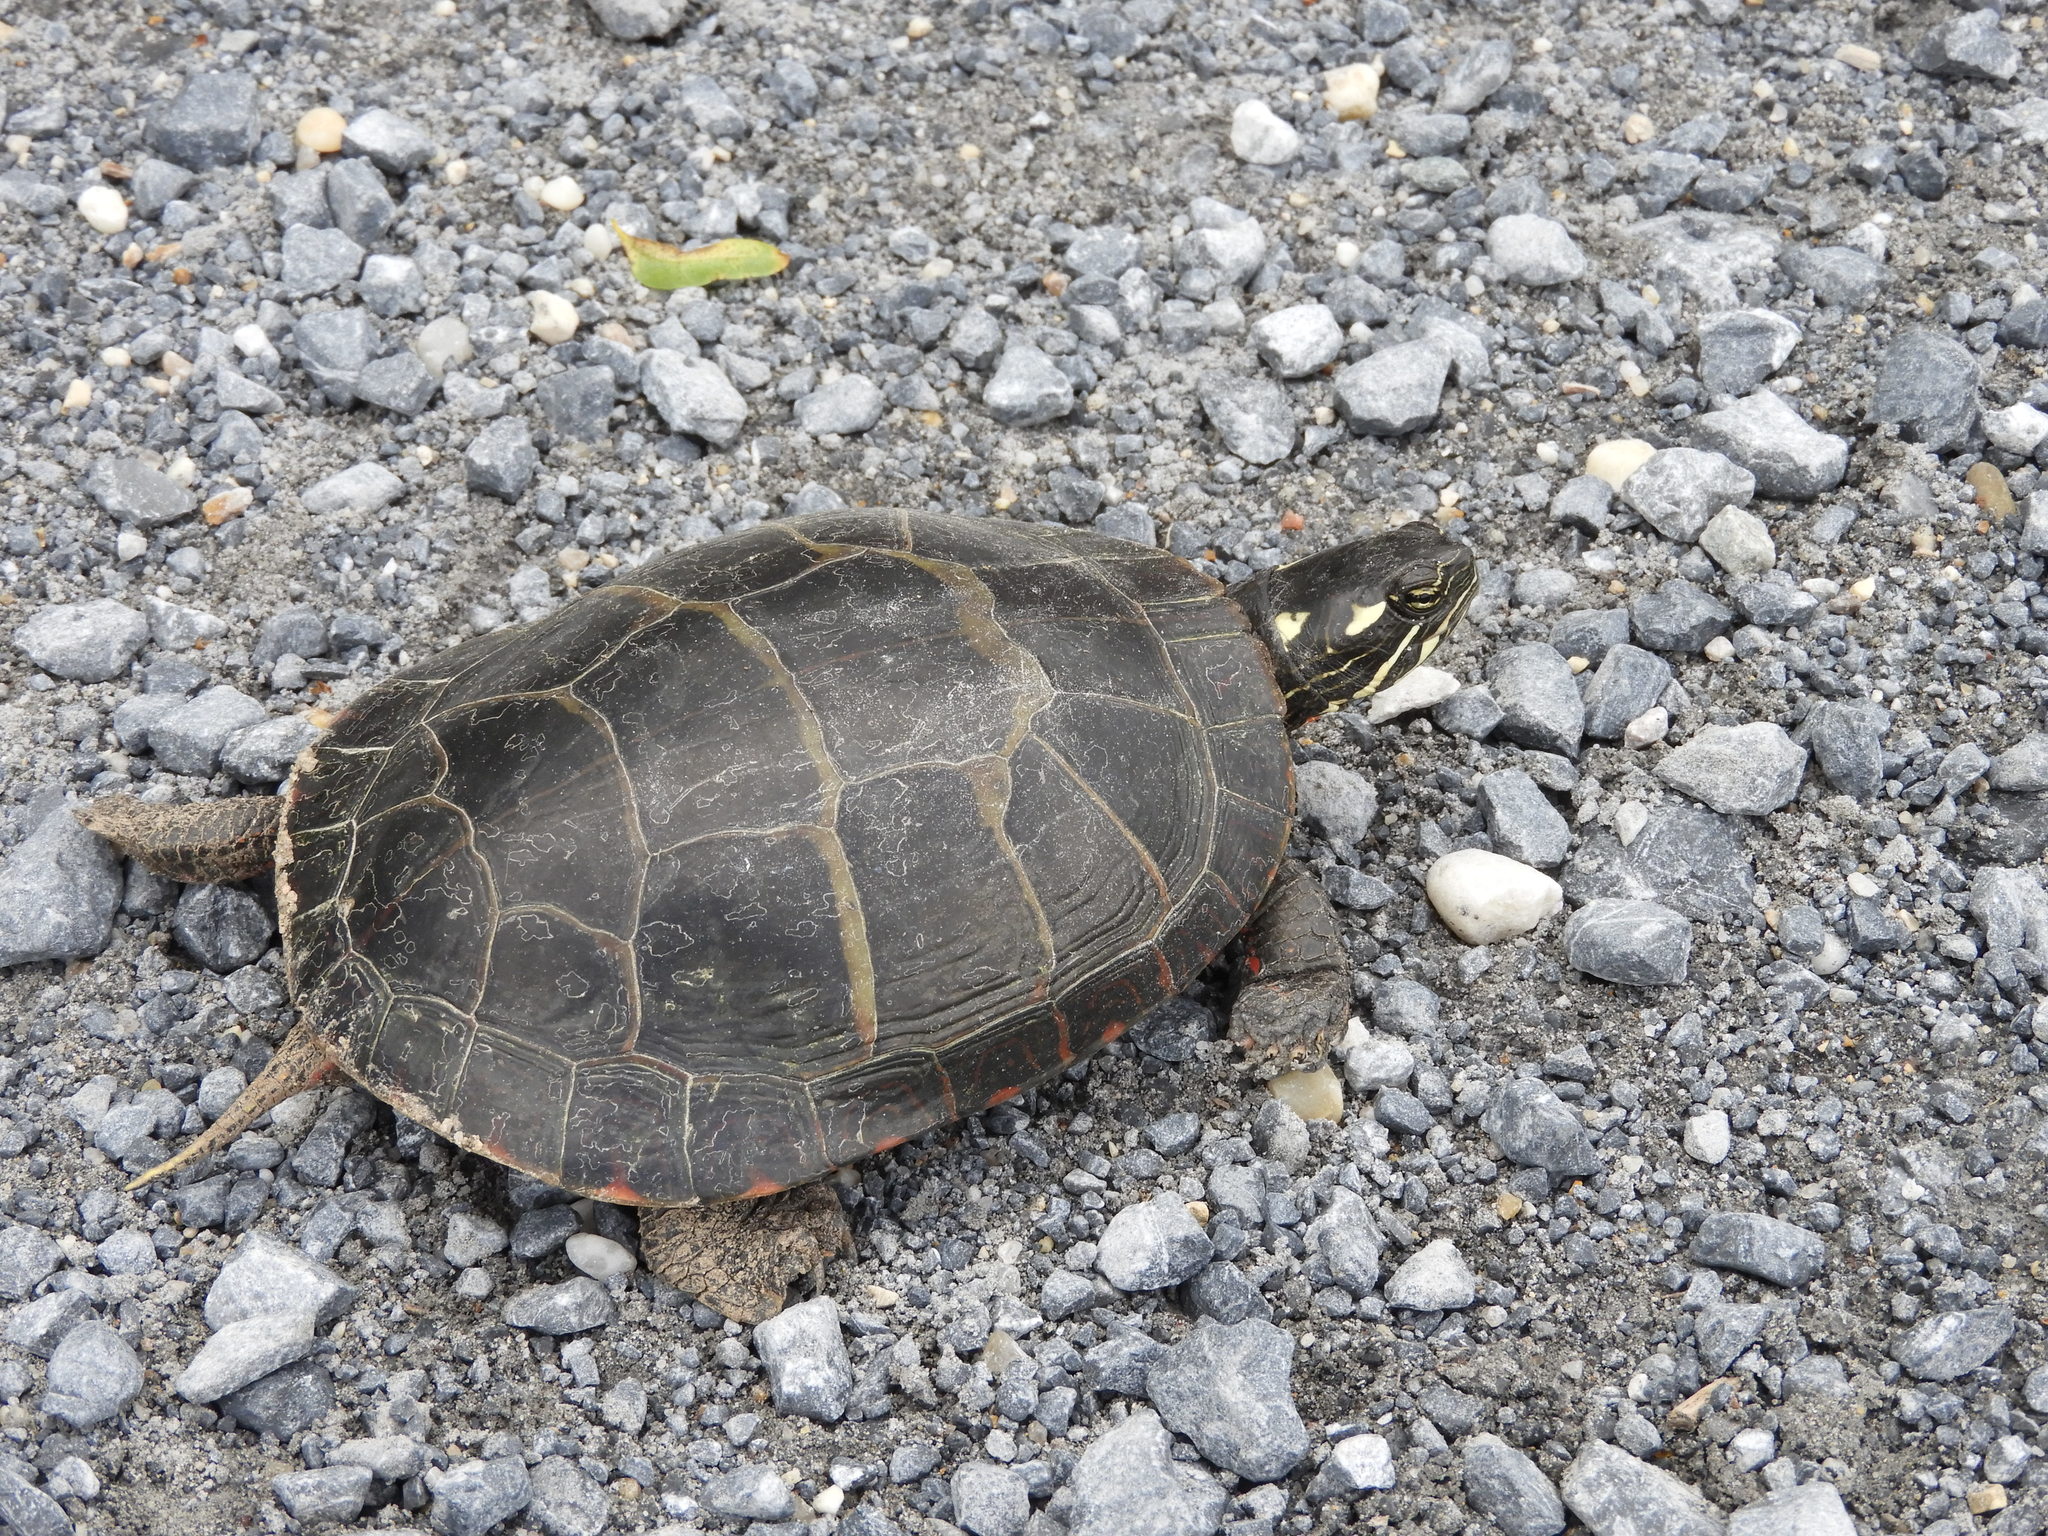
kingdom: Animalia
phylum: Chordata
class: Testudines
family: Emydidae
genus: Chrysemys
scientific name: Chrysemys picta
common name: Painted turtle
